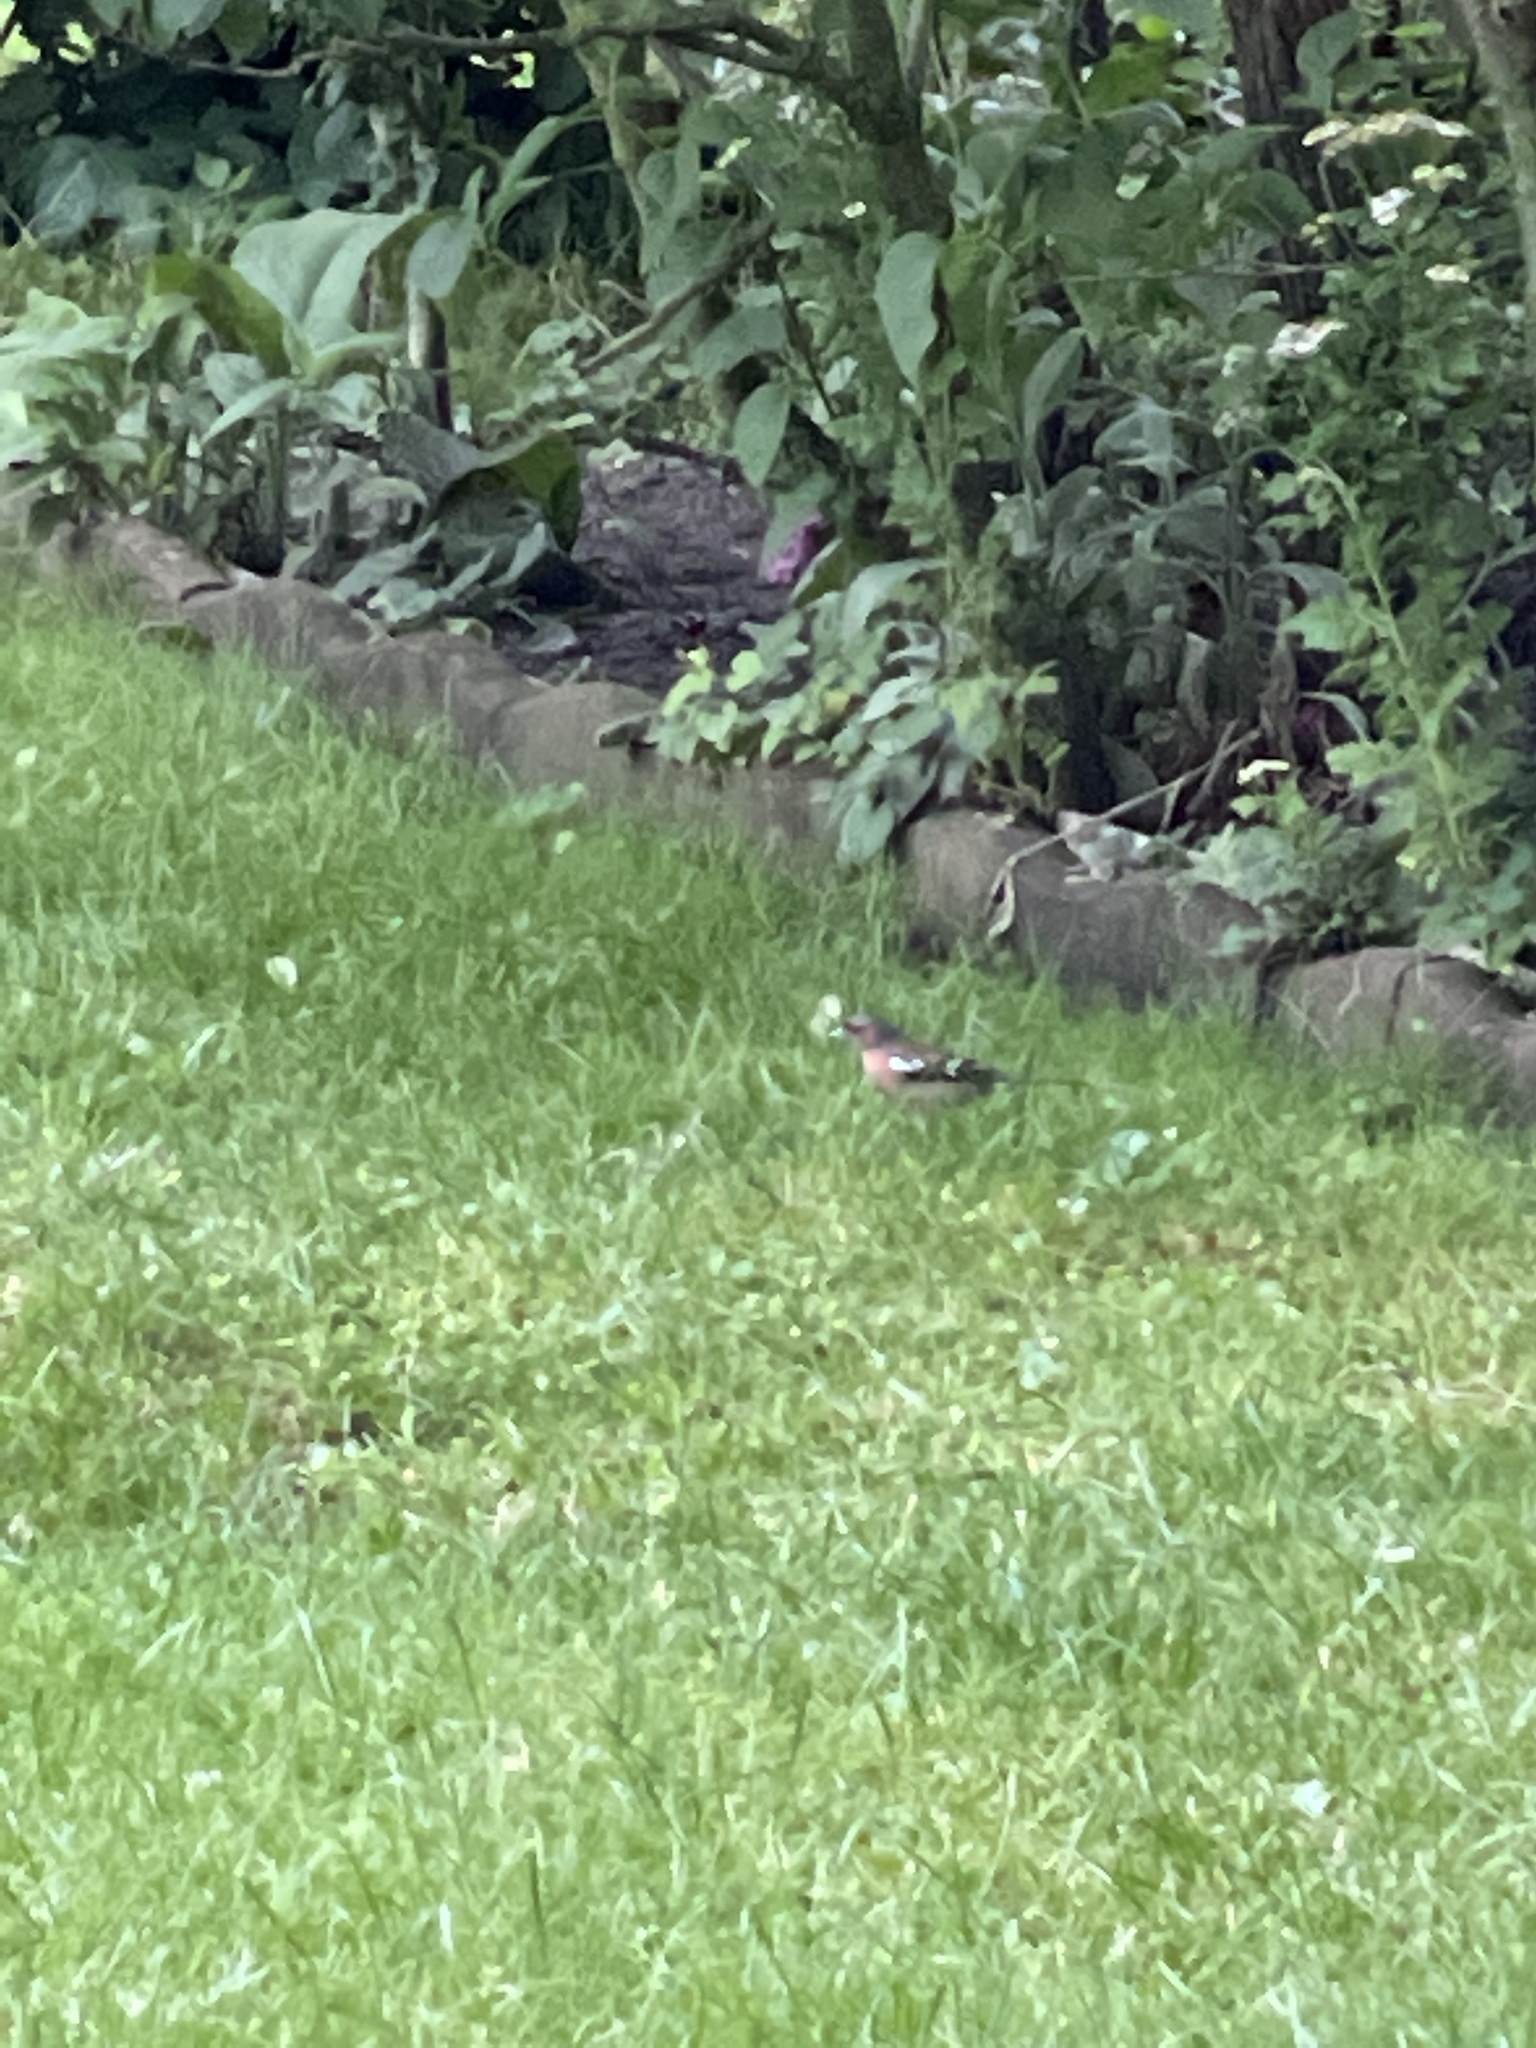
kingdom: Animalia
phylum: Chordata
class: Aves
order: Passeriformes
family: Fringillidae
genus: Fringilla
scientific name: Fringilla coelebs
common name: Common chaffinch
